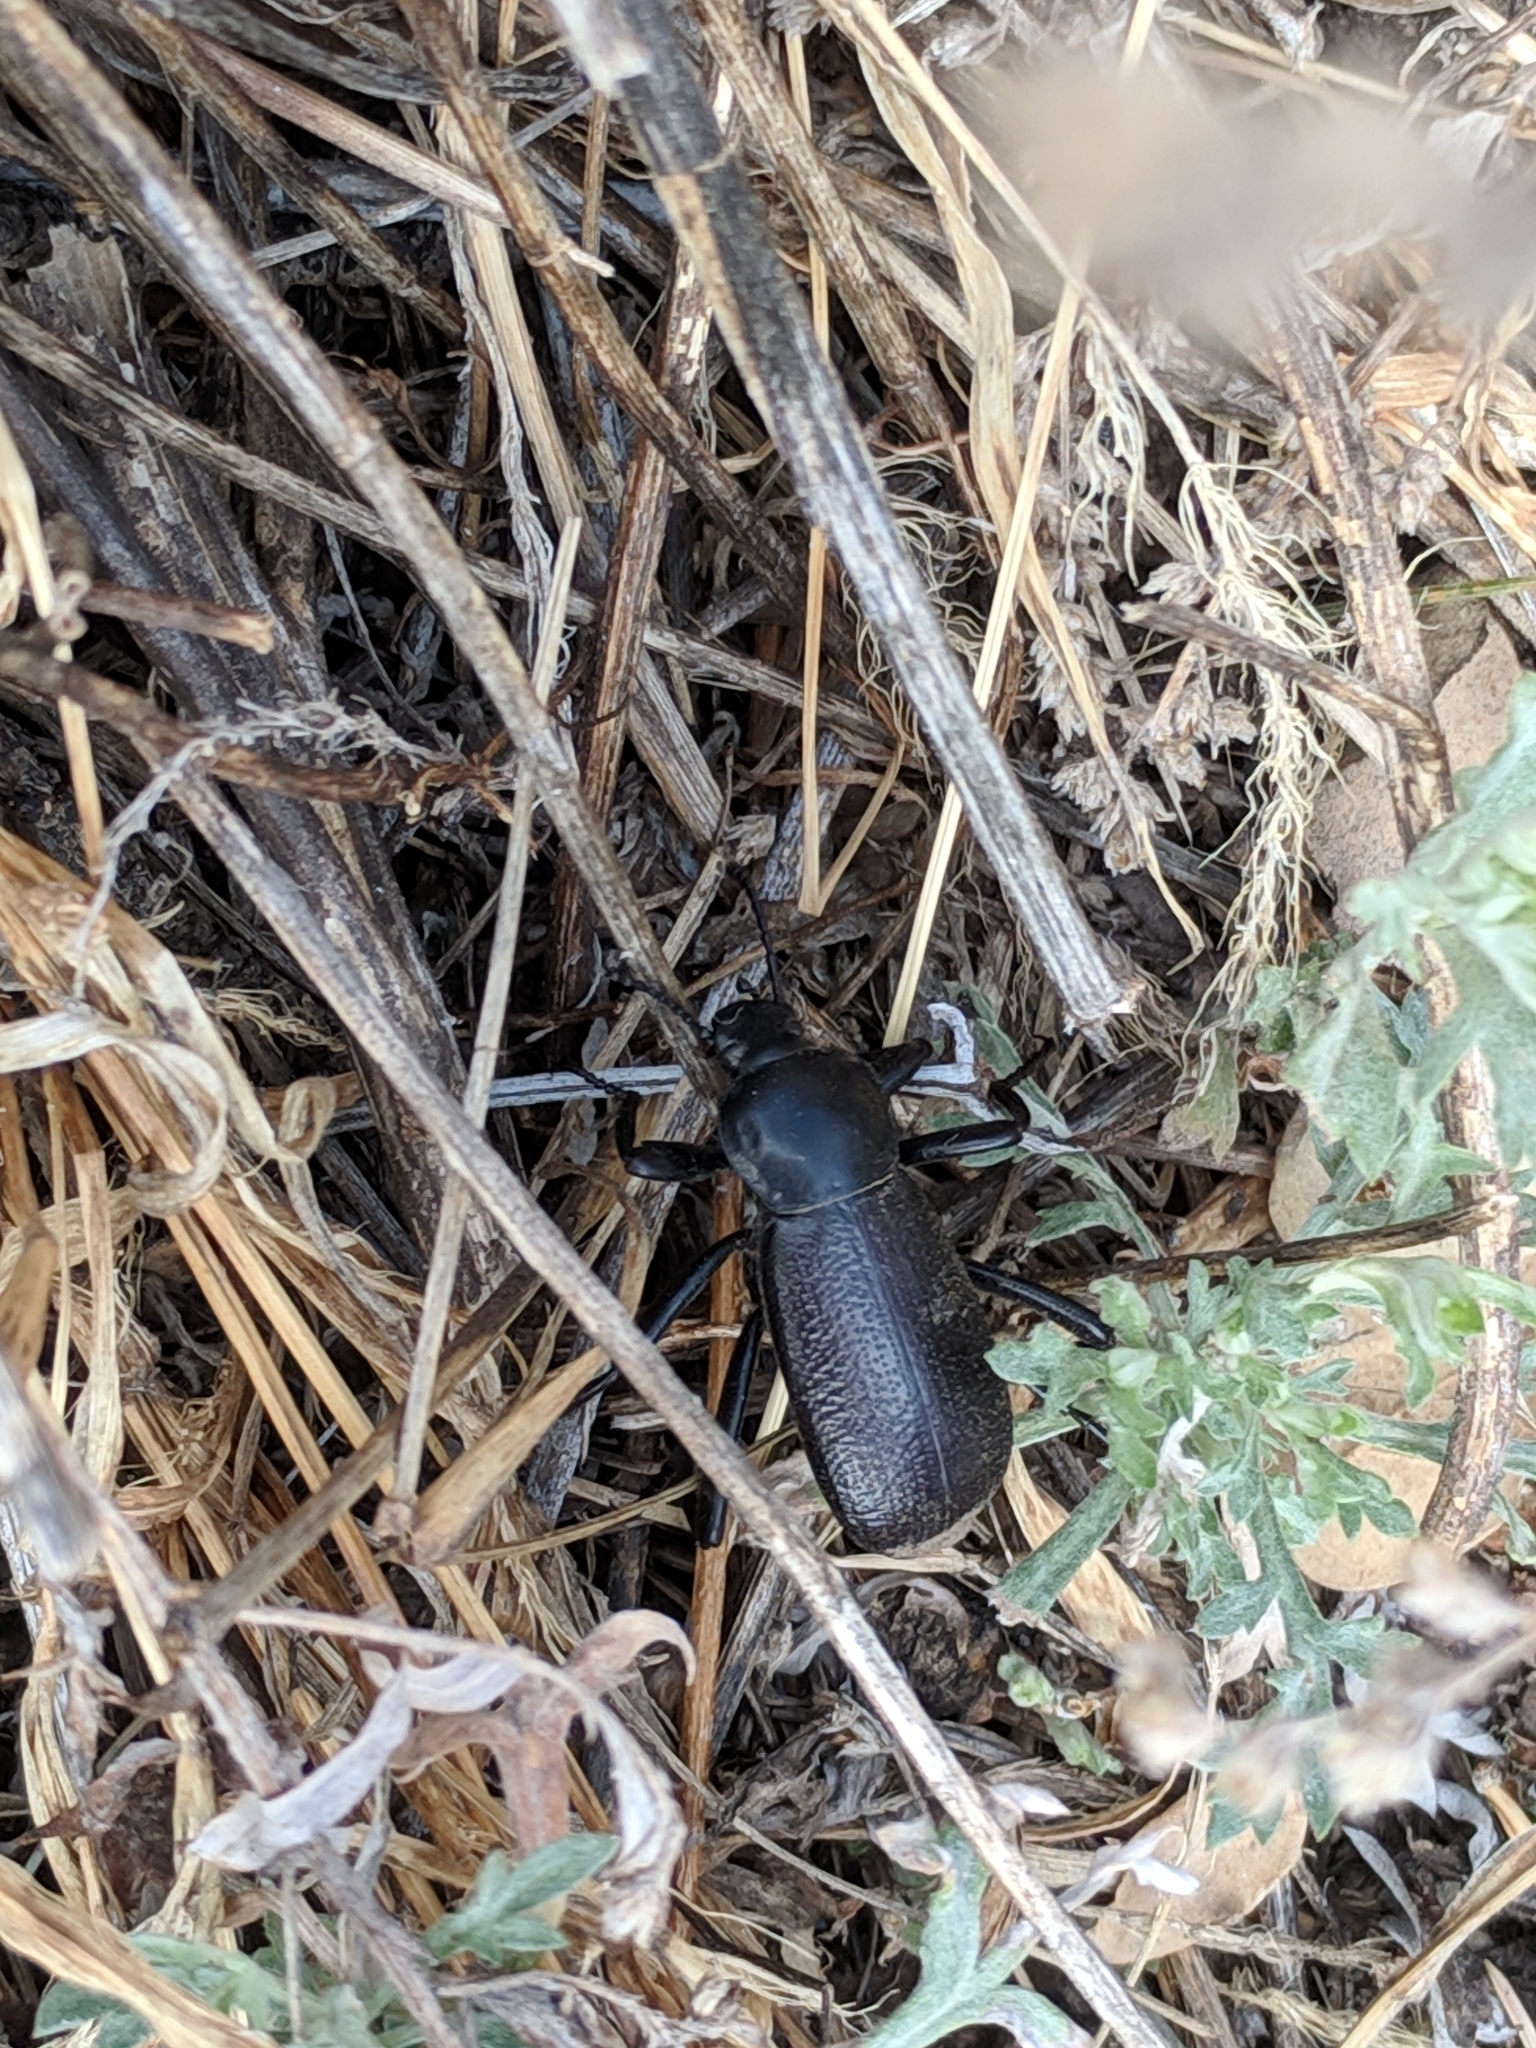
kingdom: Animalia
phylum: Arthropoda
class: Insecta
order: Coleoptera
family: Tenebrionidae
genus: Eleodes
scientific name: Eleodes obscura
